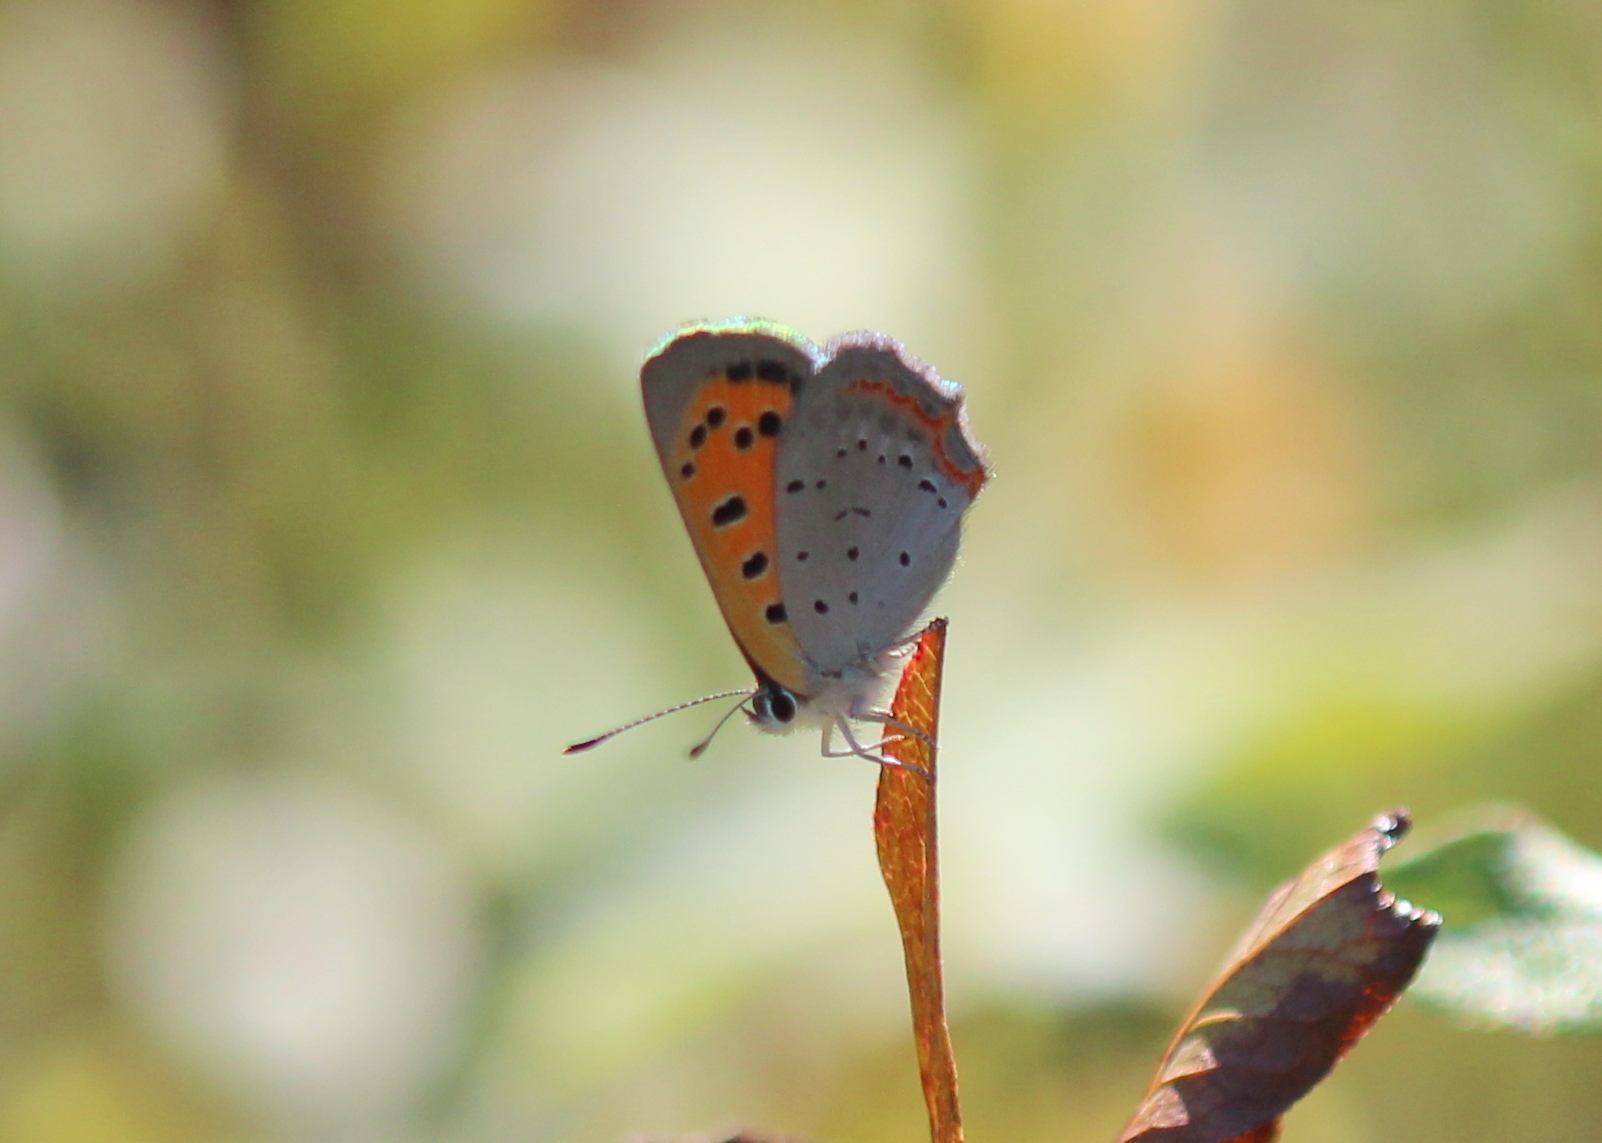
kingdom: Animalia
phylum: Arthropoda
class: Insecta
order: Lepidoptera
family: Lycaenidae
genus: Lycaena
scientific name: Lycaena hypophlaeas
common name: American copper
